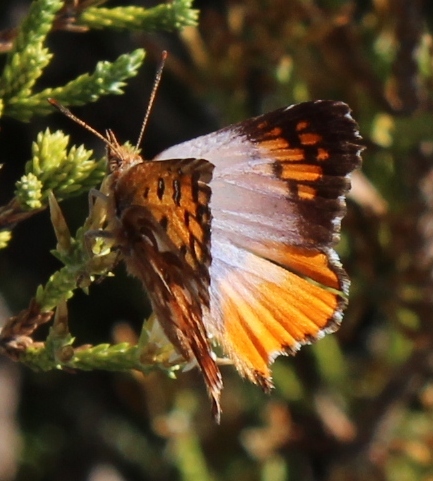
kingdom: Animalia
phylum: Arthropoda
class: Insecta
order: Lepidoptera
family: Lycaenidae
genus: Chrysoritis
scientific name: Chrysoritis rileyi
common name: Glitter opal
